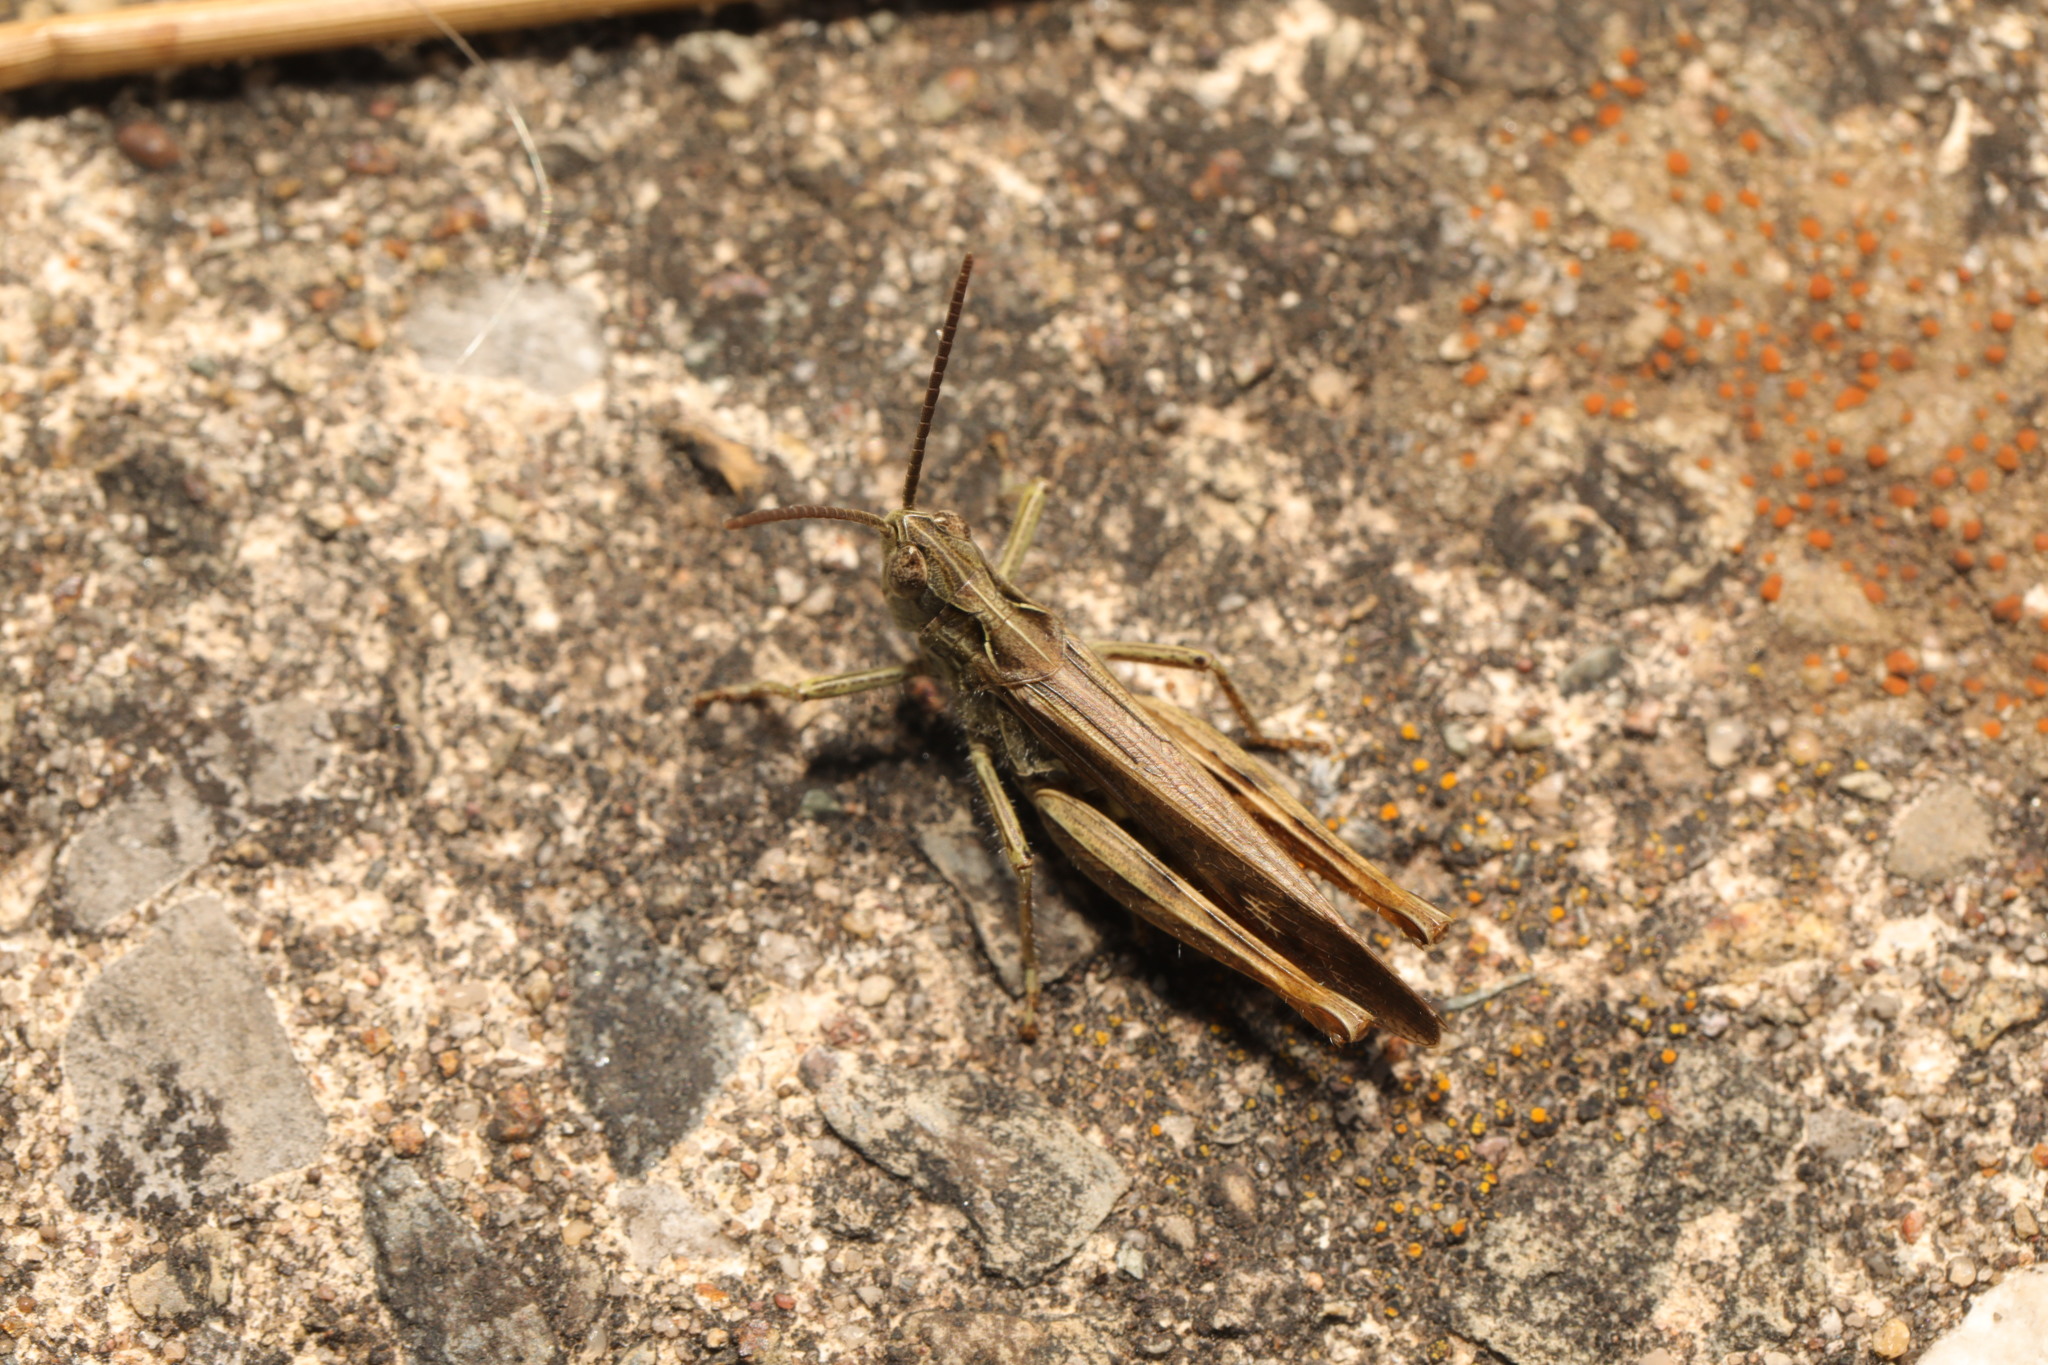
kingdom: Animalia
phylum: Arthropoda
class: Insecta
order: Orthoptera
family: Acrididae
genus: Chorthippus
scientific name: Chorthippus brunneus
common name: Field grasshopper
